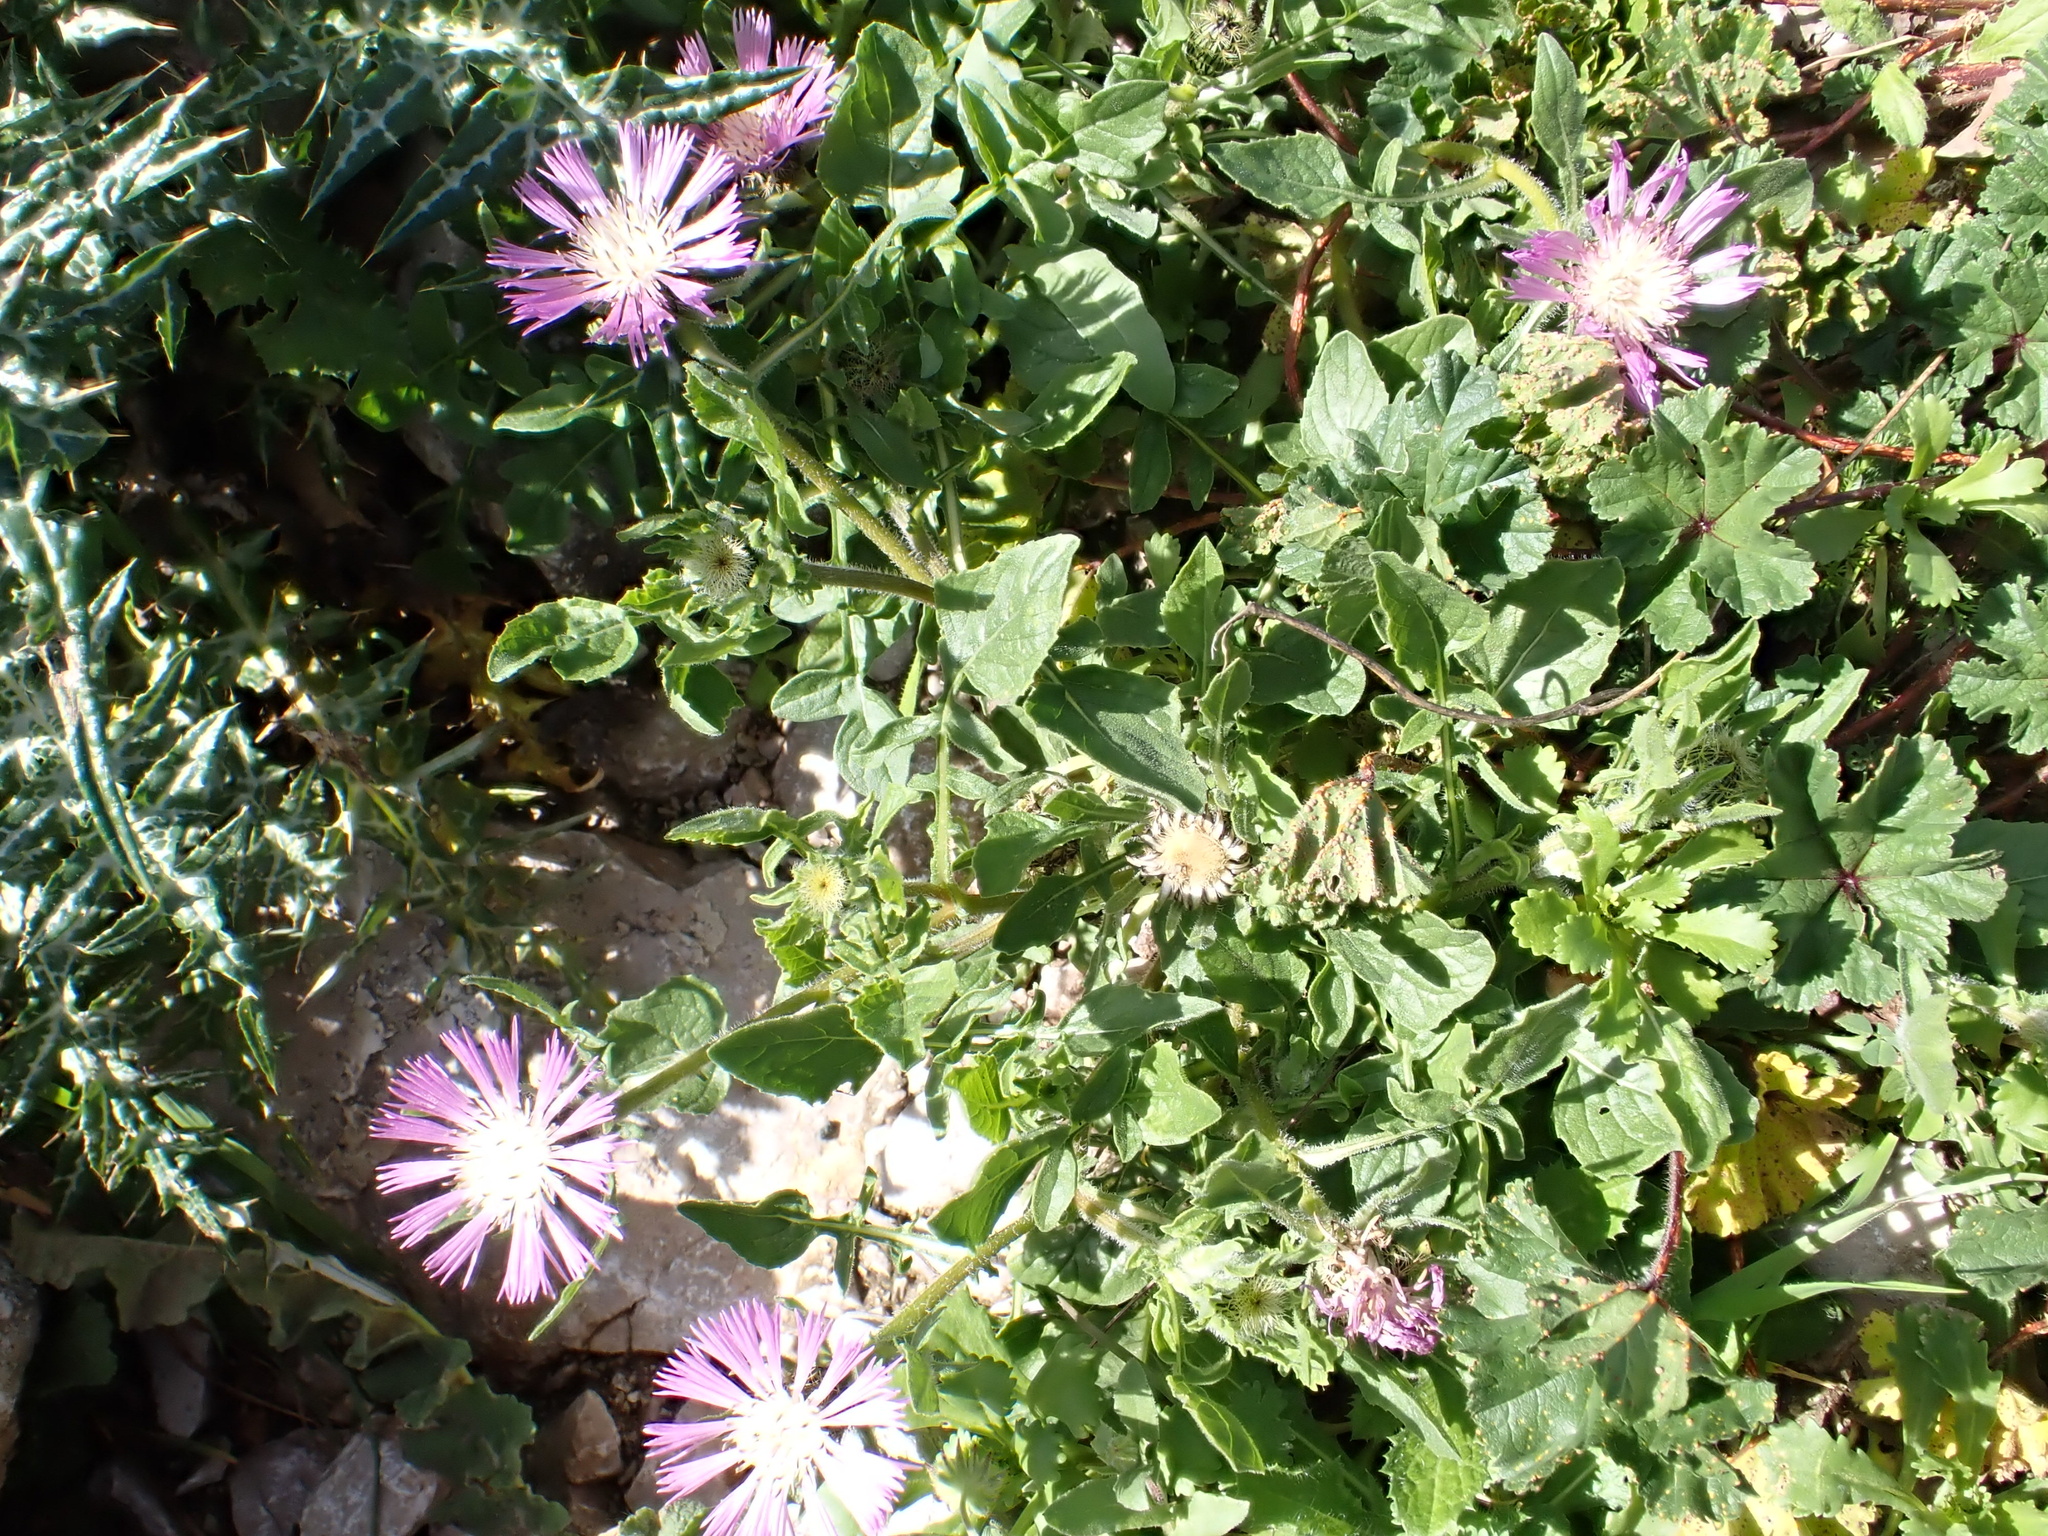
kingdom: Plantae
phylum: Tracheophyta
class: Magnoliopsida
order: Asterales
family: Asteraceae
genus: Centaurea
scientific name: Centaurea pullata
